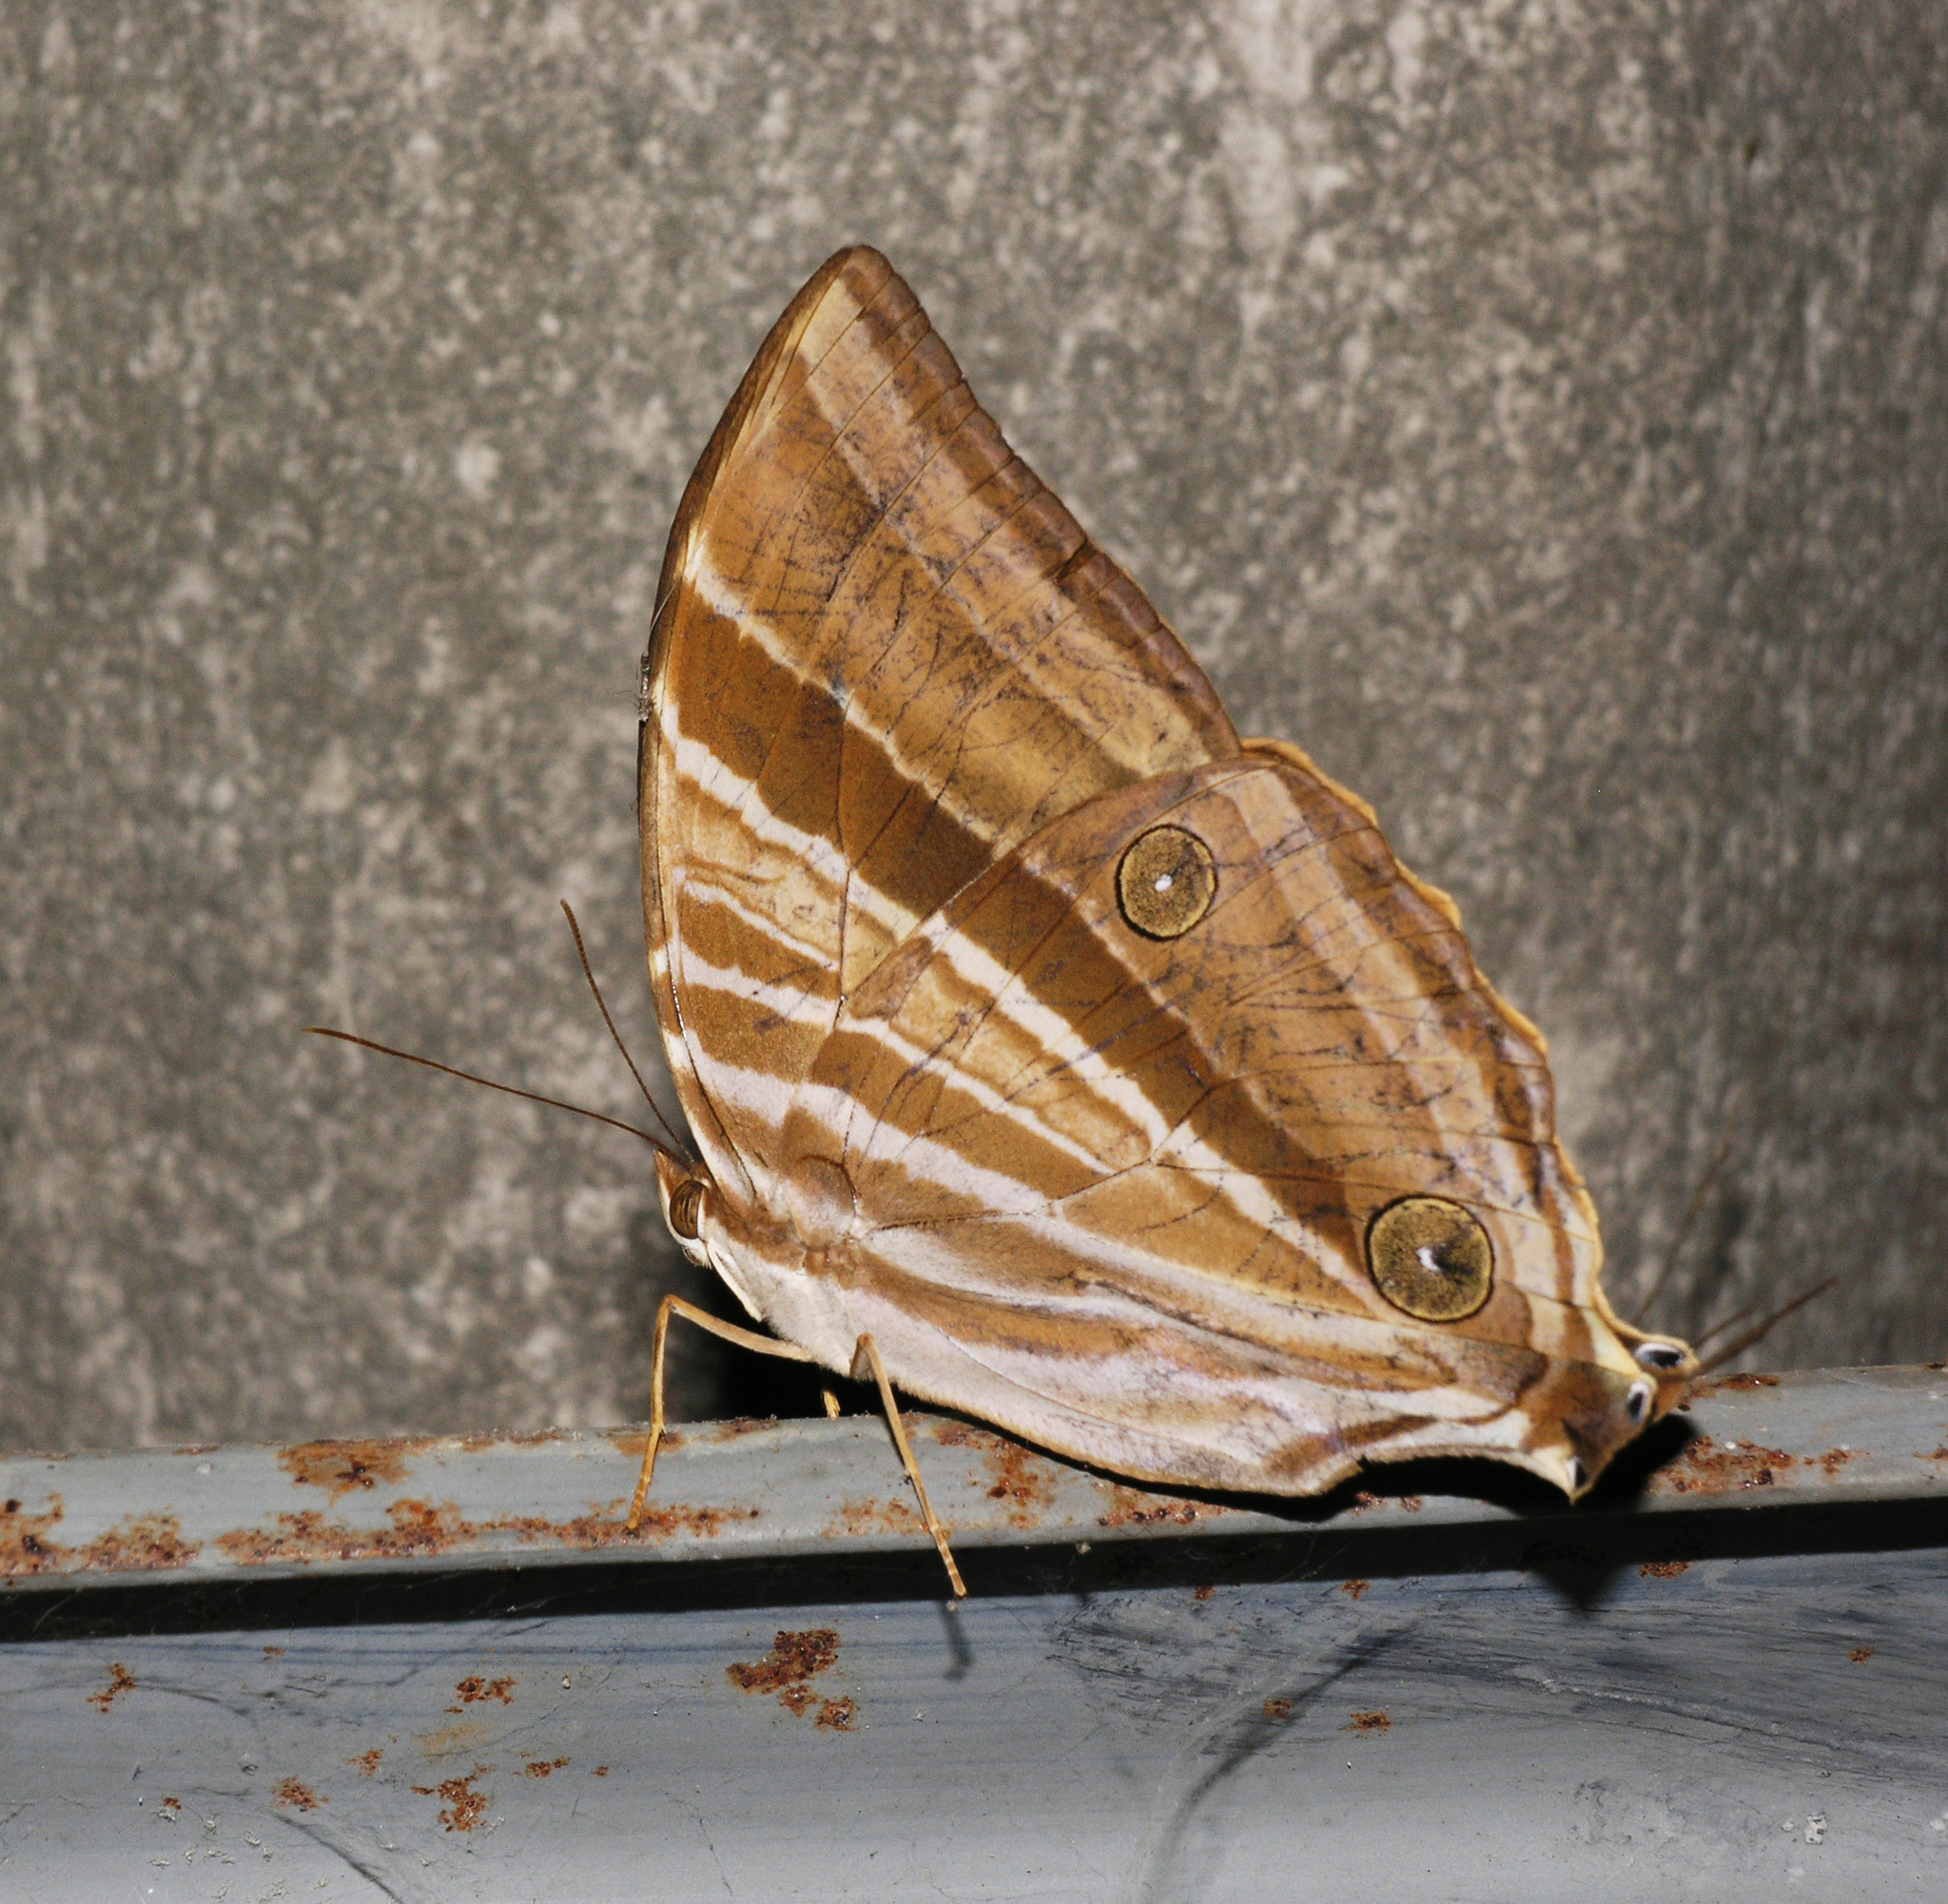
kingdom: Animalia
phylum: Arthropoda
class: Insecta
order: Lepidoptera
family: Nymphalidae
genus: Amathusia
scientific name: Amathusia phidippus
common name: Palm king
